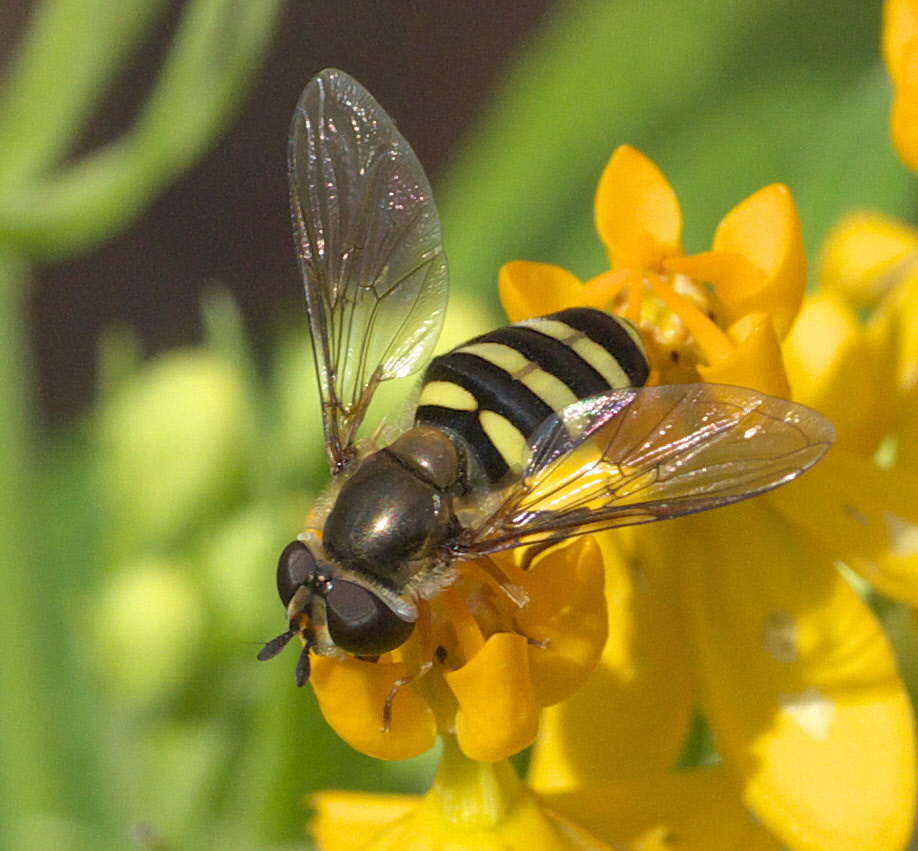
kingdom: Animalia
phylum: Arthropoda
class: Insecta
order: Diptera
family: Syrphidae
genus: Eupeodes
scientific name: Eupeodes
